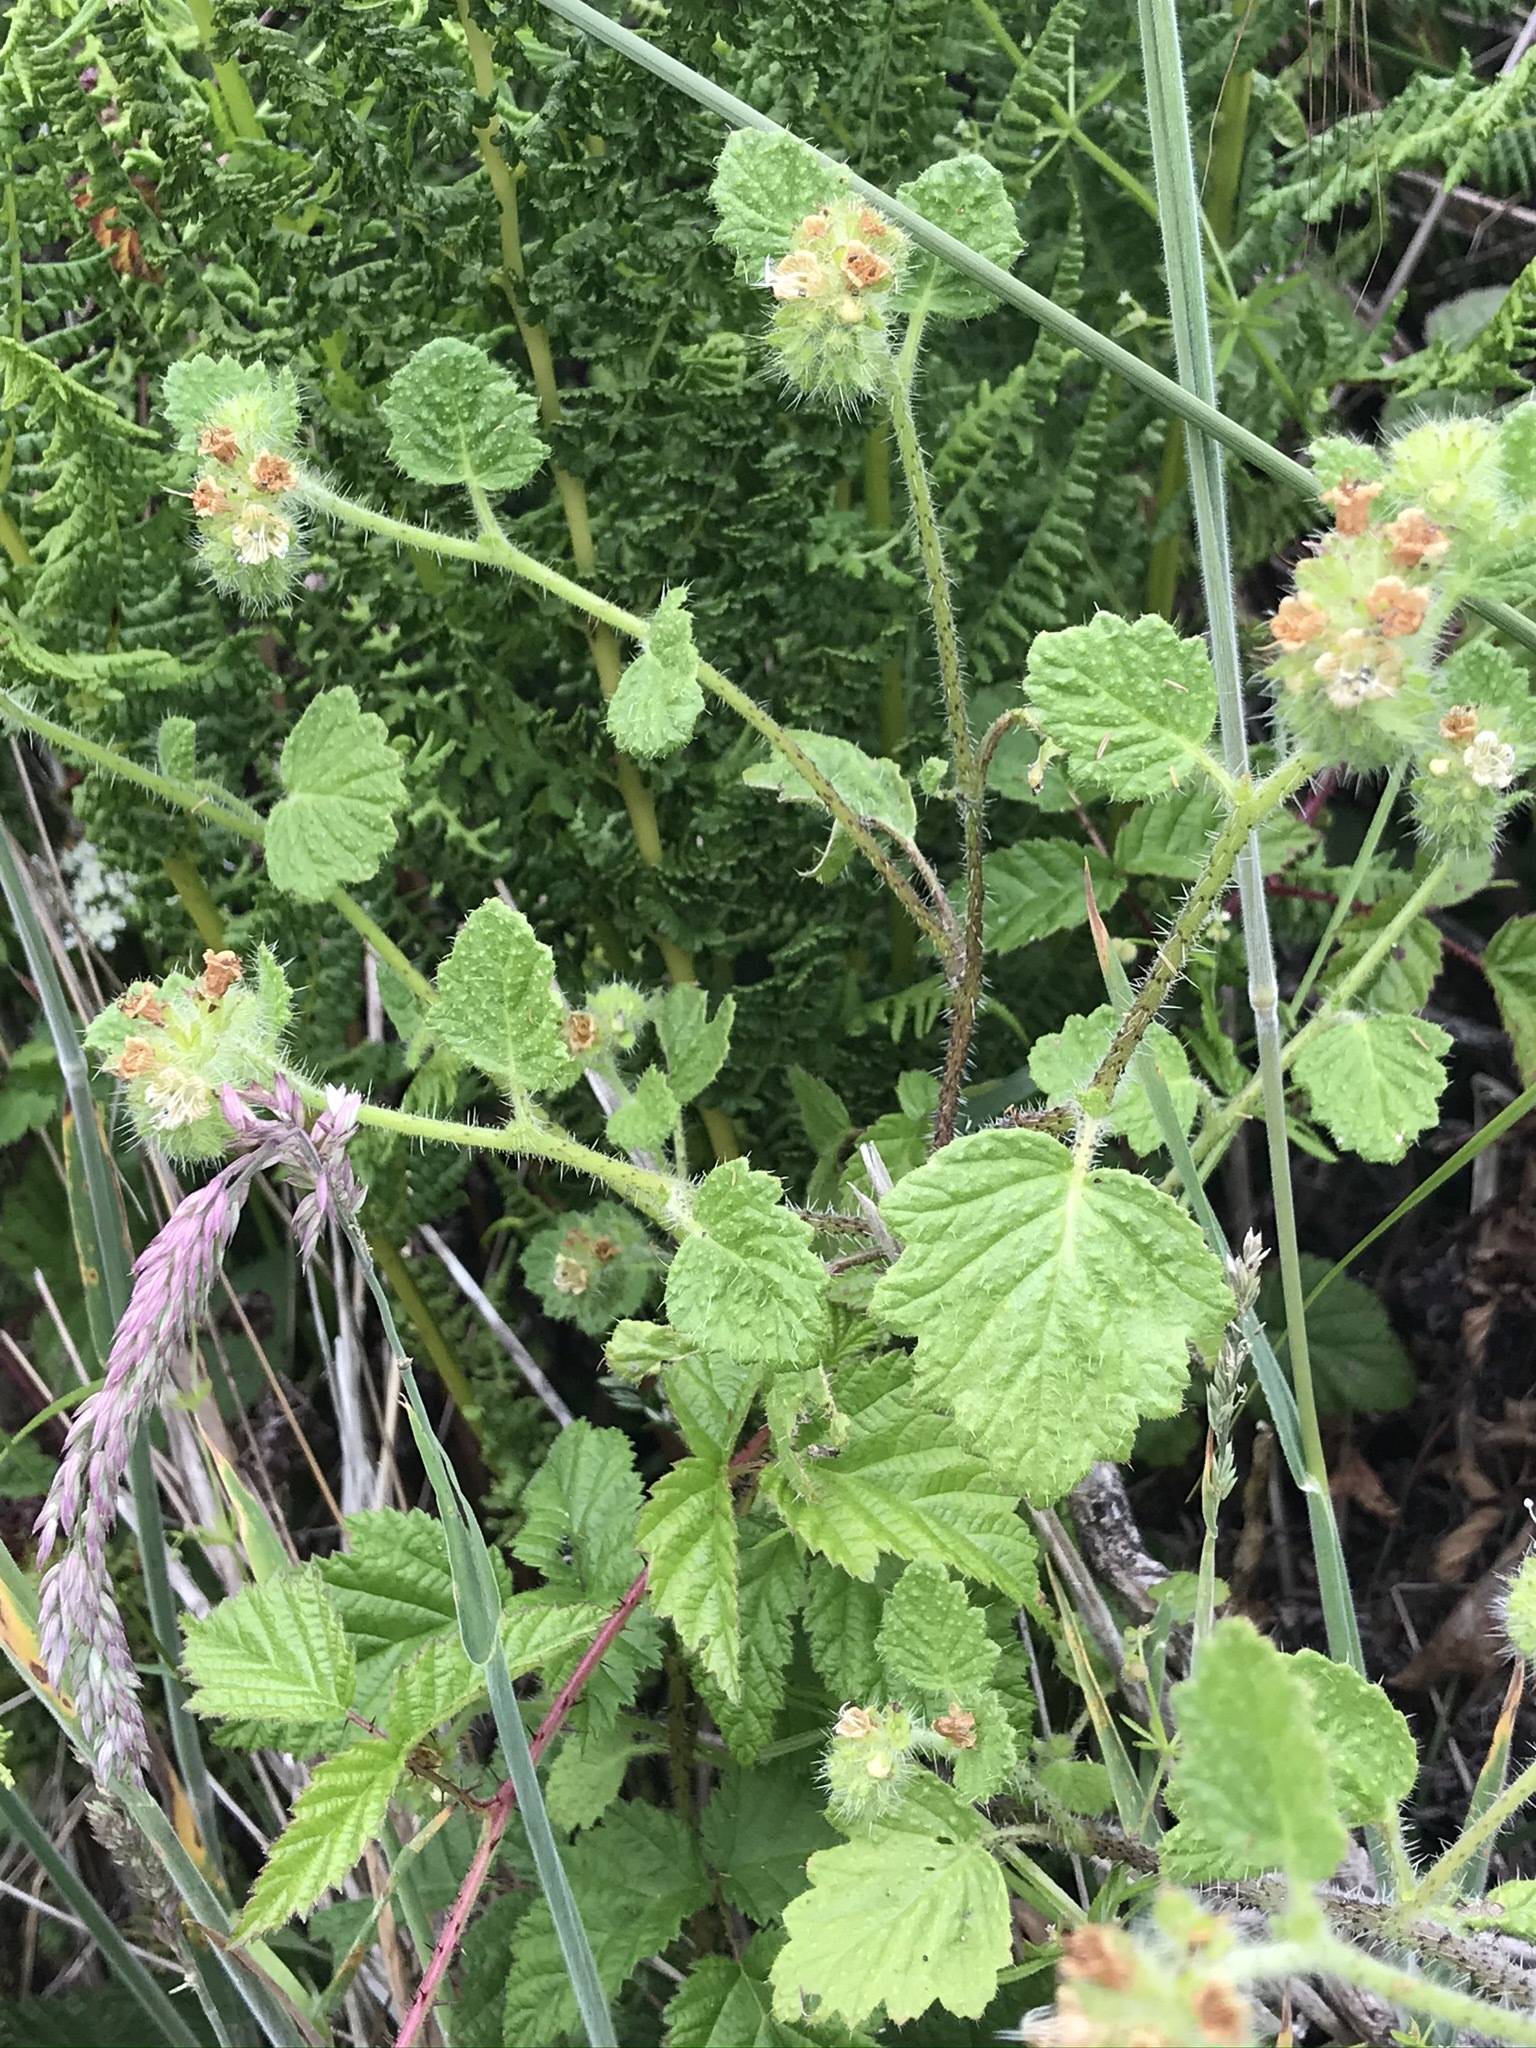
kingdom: Plantae
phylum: Tracheophyta
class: Magnoliopsida
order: Boraginales
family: Hydrophyllaceae
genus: Phacelia
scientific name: Phacelia malvifolia
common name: Mallow-leaf phacelia
